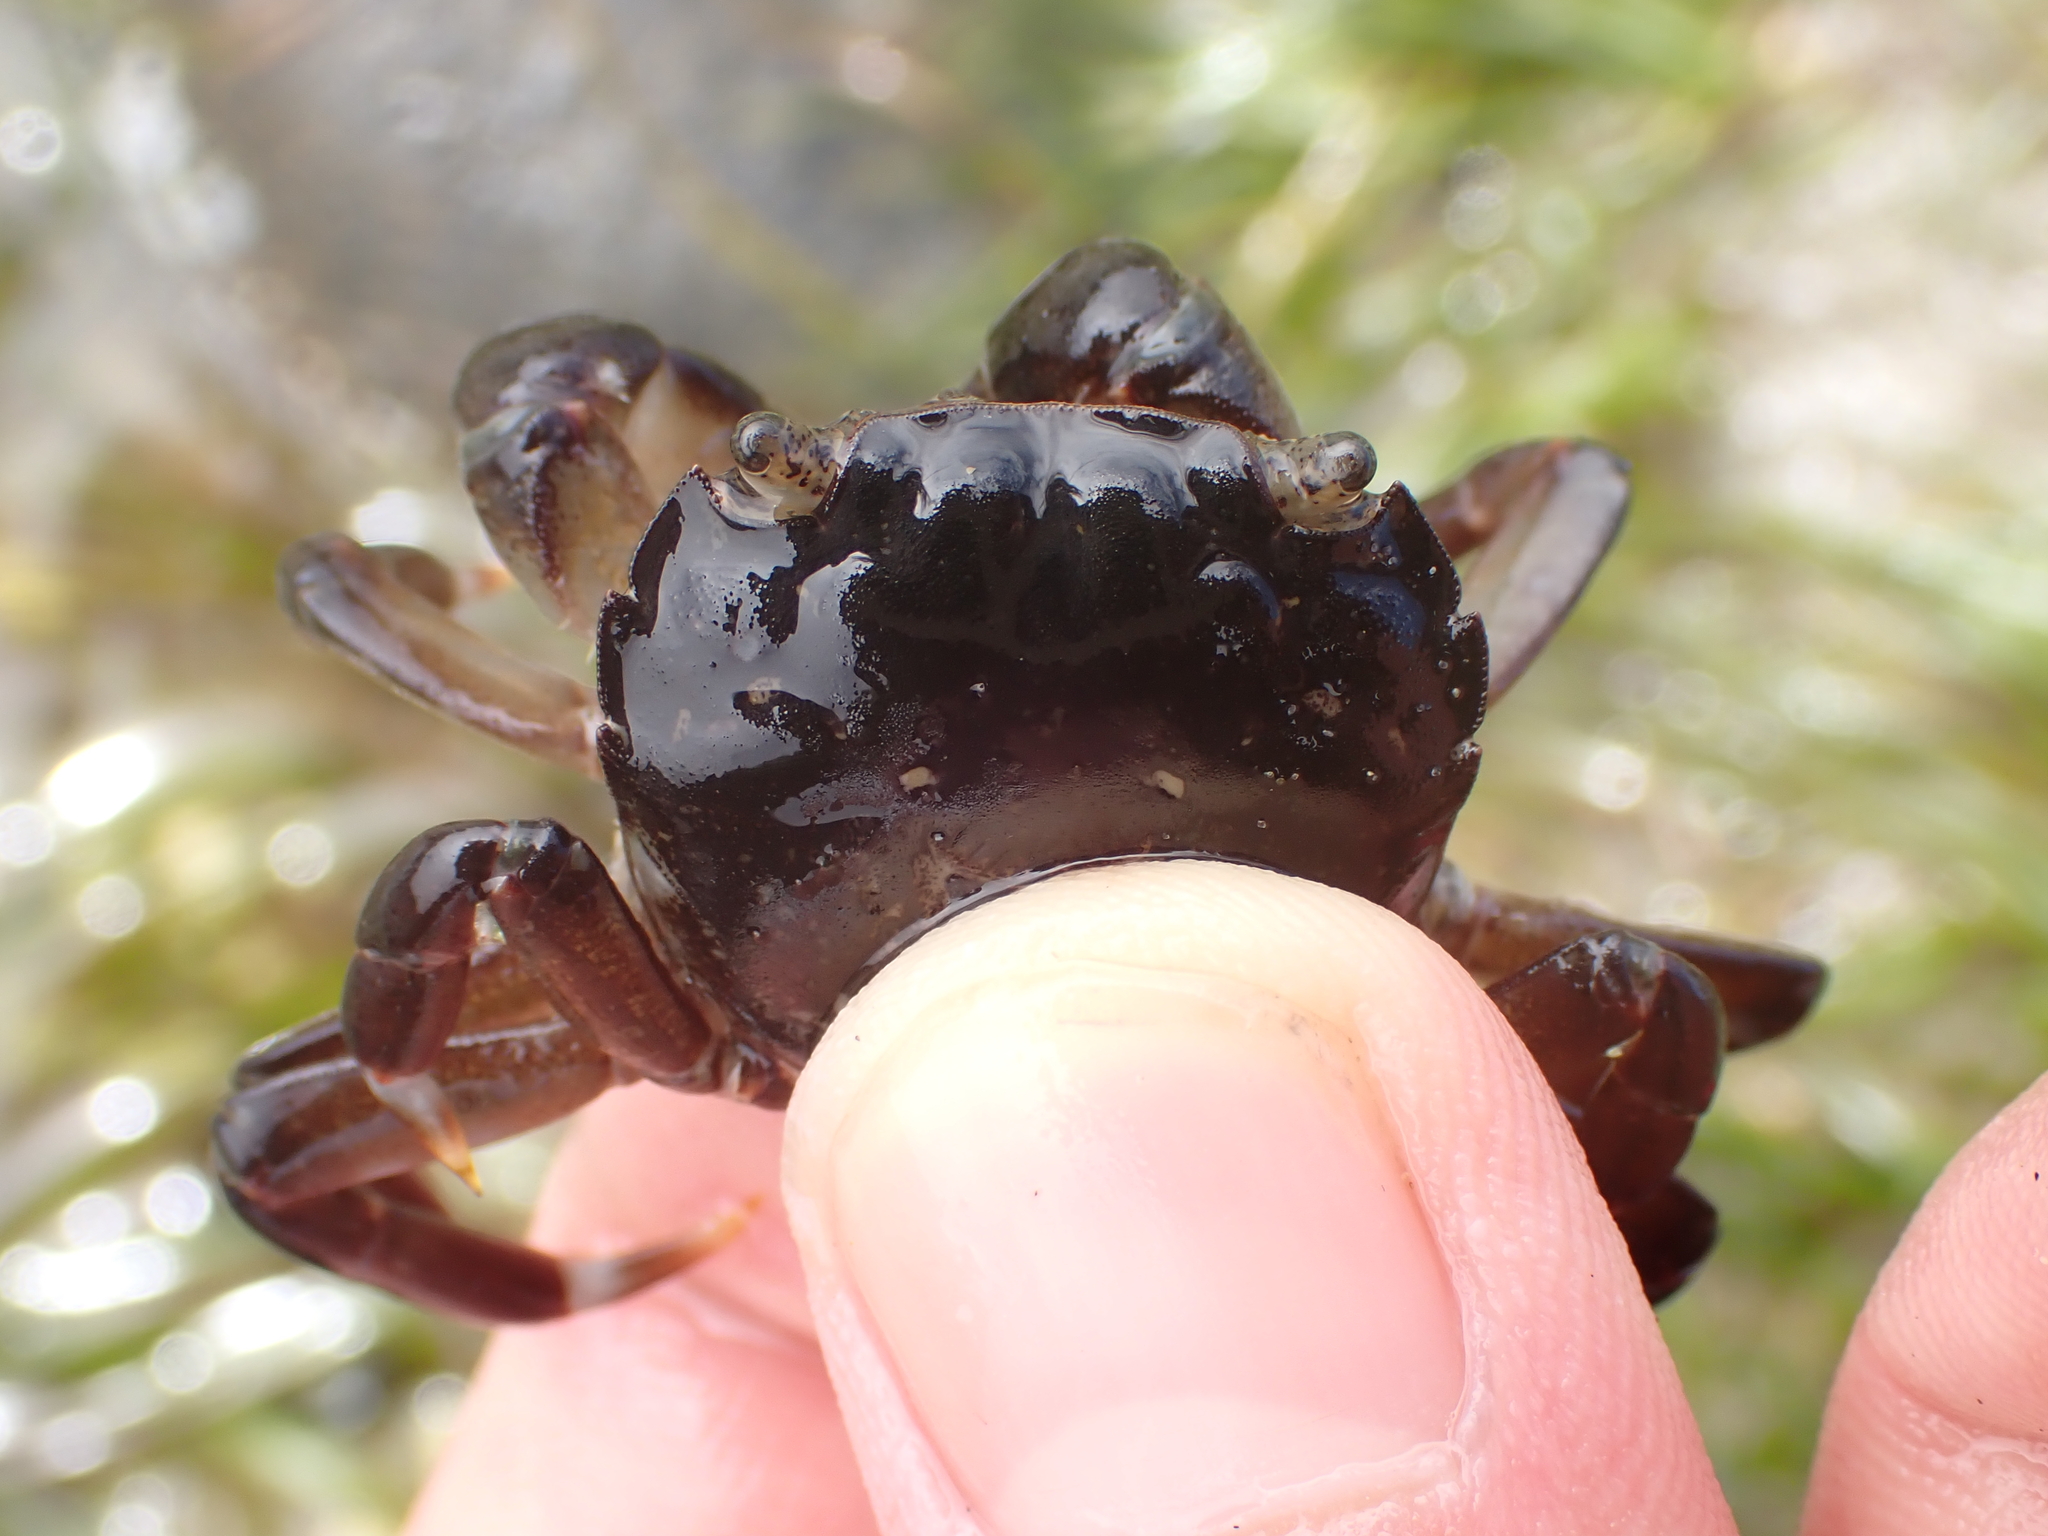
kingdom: Animalia
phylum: Arthropoda
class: Malacostraca
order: Decapoda
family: Varunidae
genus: Hemigrapsus
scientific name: Hemigrapsus sexdentatus
